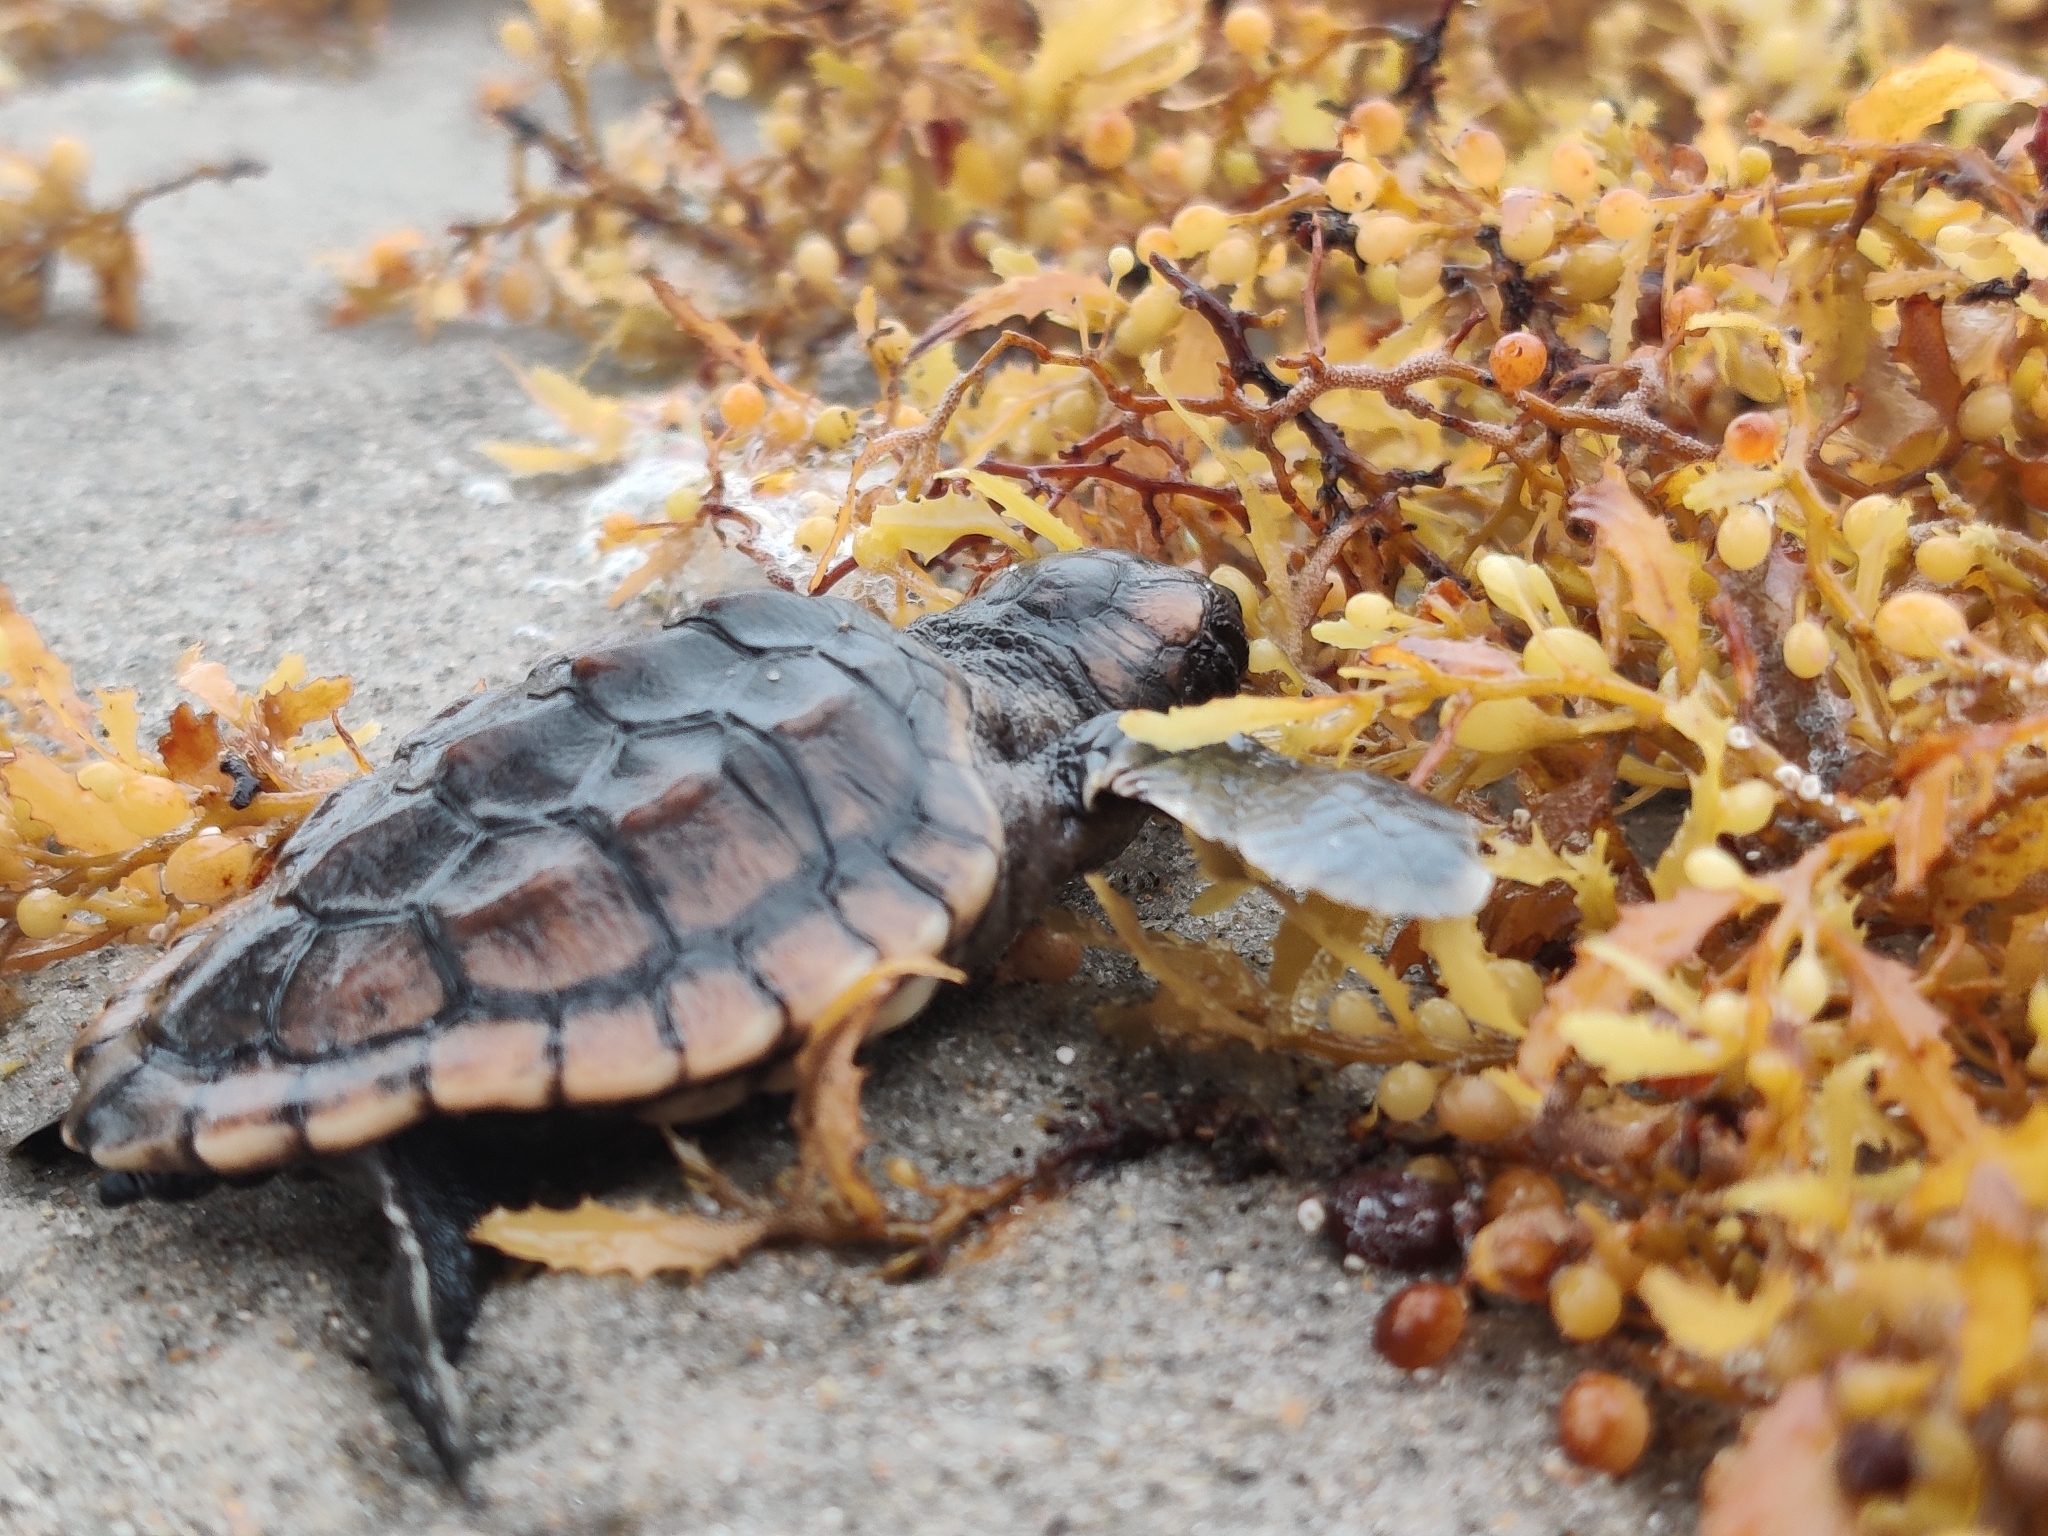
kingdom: Animalia
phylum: Chordata
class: Testudines
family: Cheloniidae
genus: Caretta
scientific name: Caretta caretta
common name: Loggerhead sea turtle
